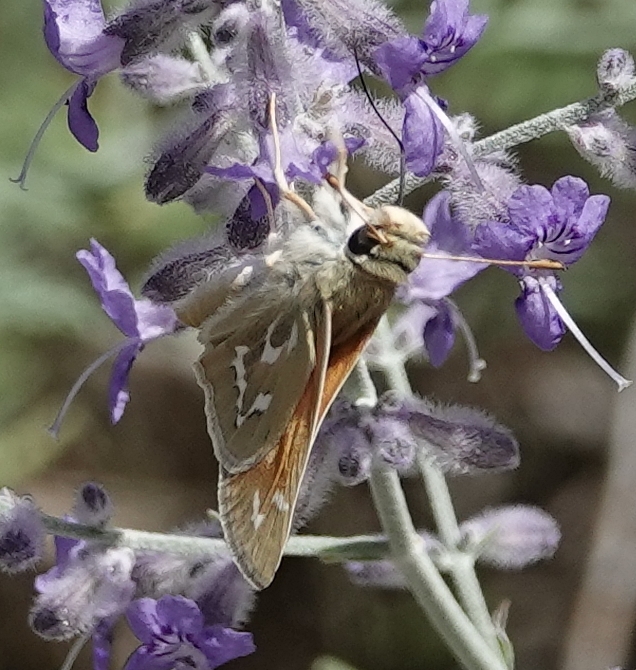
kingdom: Animalia
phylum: Arthropoda
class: Insecta
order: Lepidoptera
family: Hesperiidae
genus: Hesperia
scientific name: Hesperia comma
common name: Common branded skipper
